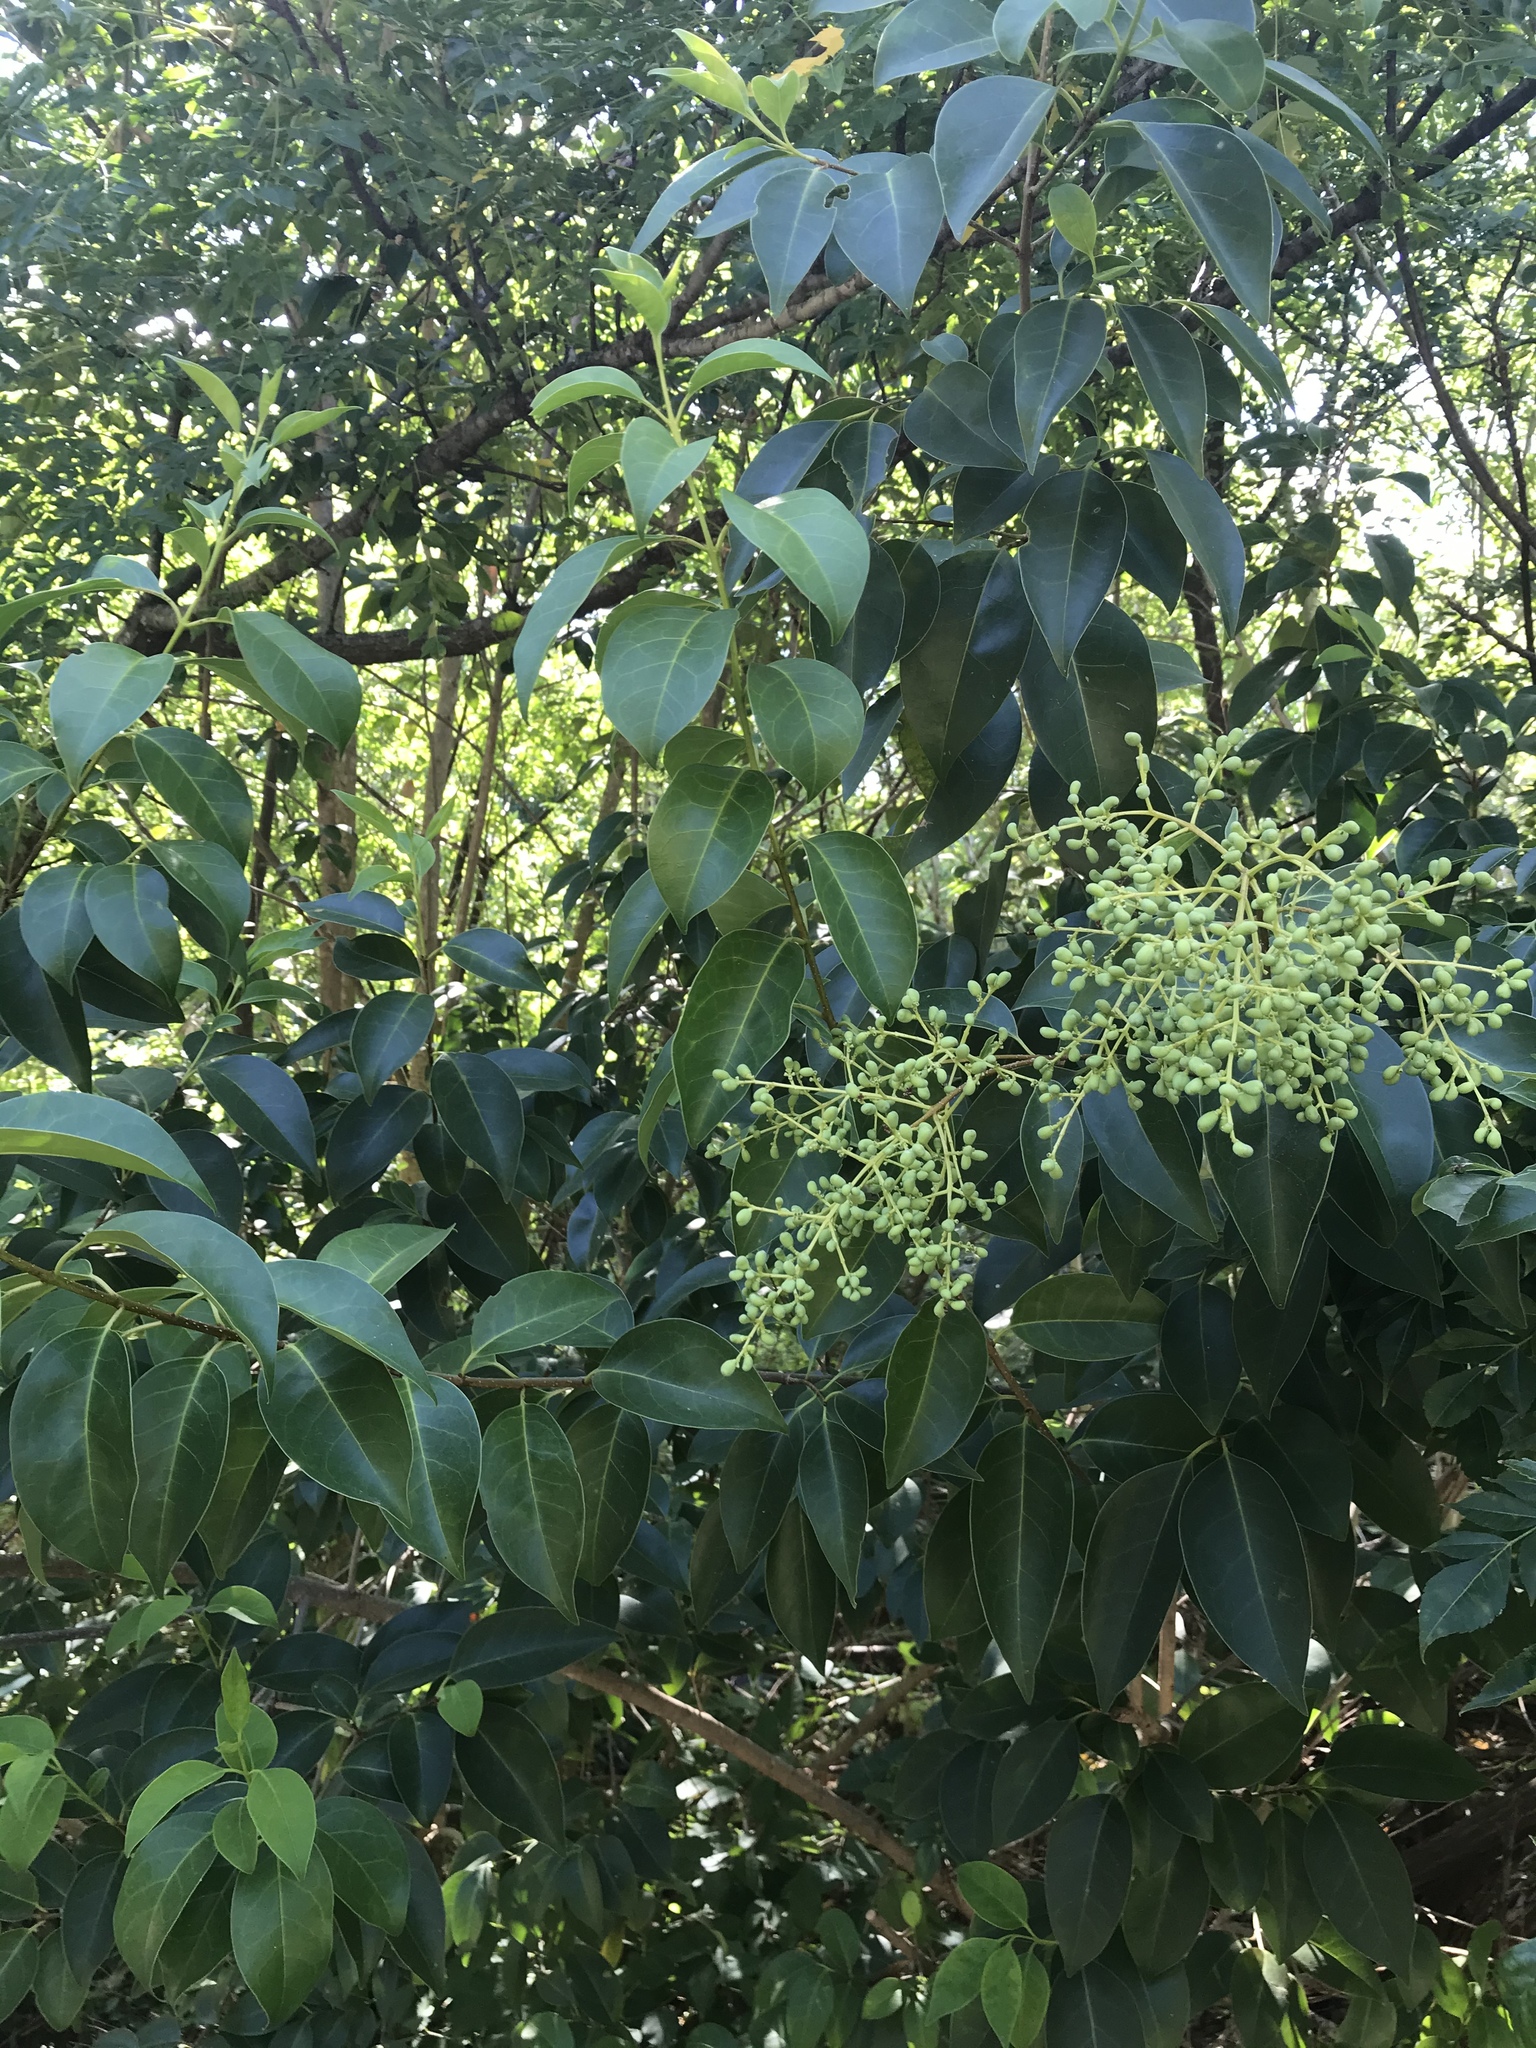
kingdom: Plantae
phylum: Tracheophyta
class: Magnoliopsida
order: Lamiales
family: Oleaceae
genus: Ligustrum
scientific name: Ligustrum lucidum
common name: Glossy privet
